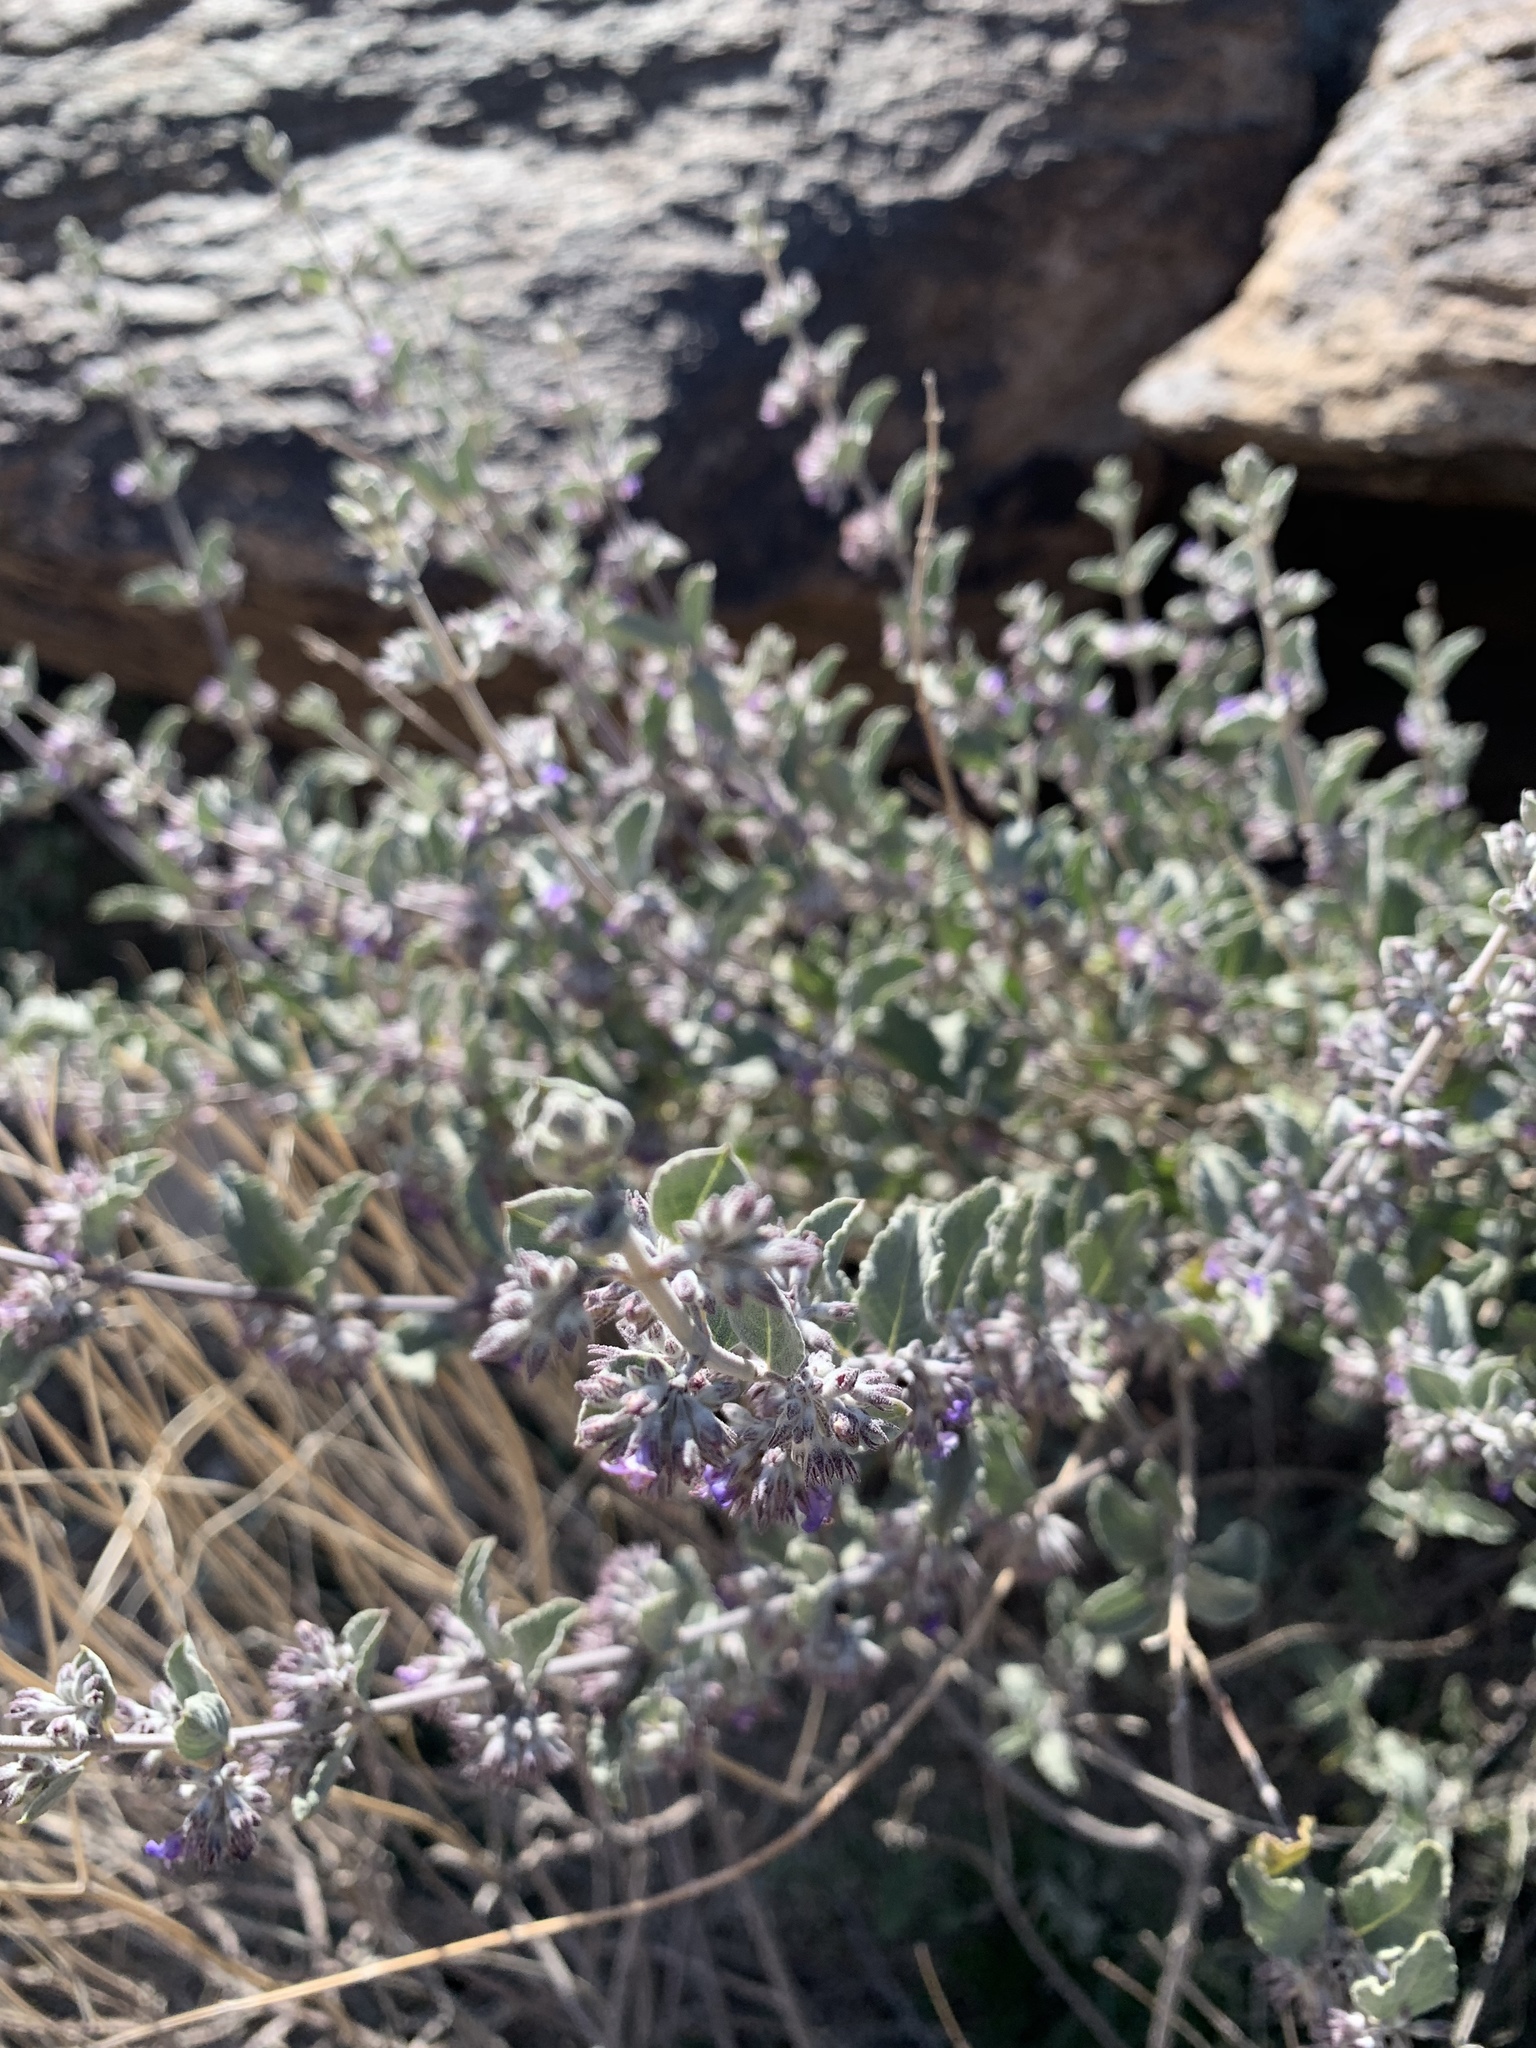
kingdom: Plantae
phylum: Tracheophyta
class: Magnoliopsida
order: Lamiales
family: Lamiaceae
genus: Condea
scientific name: Condea emoryi
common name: Chia
